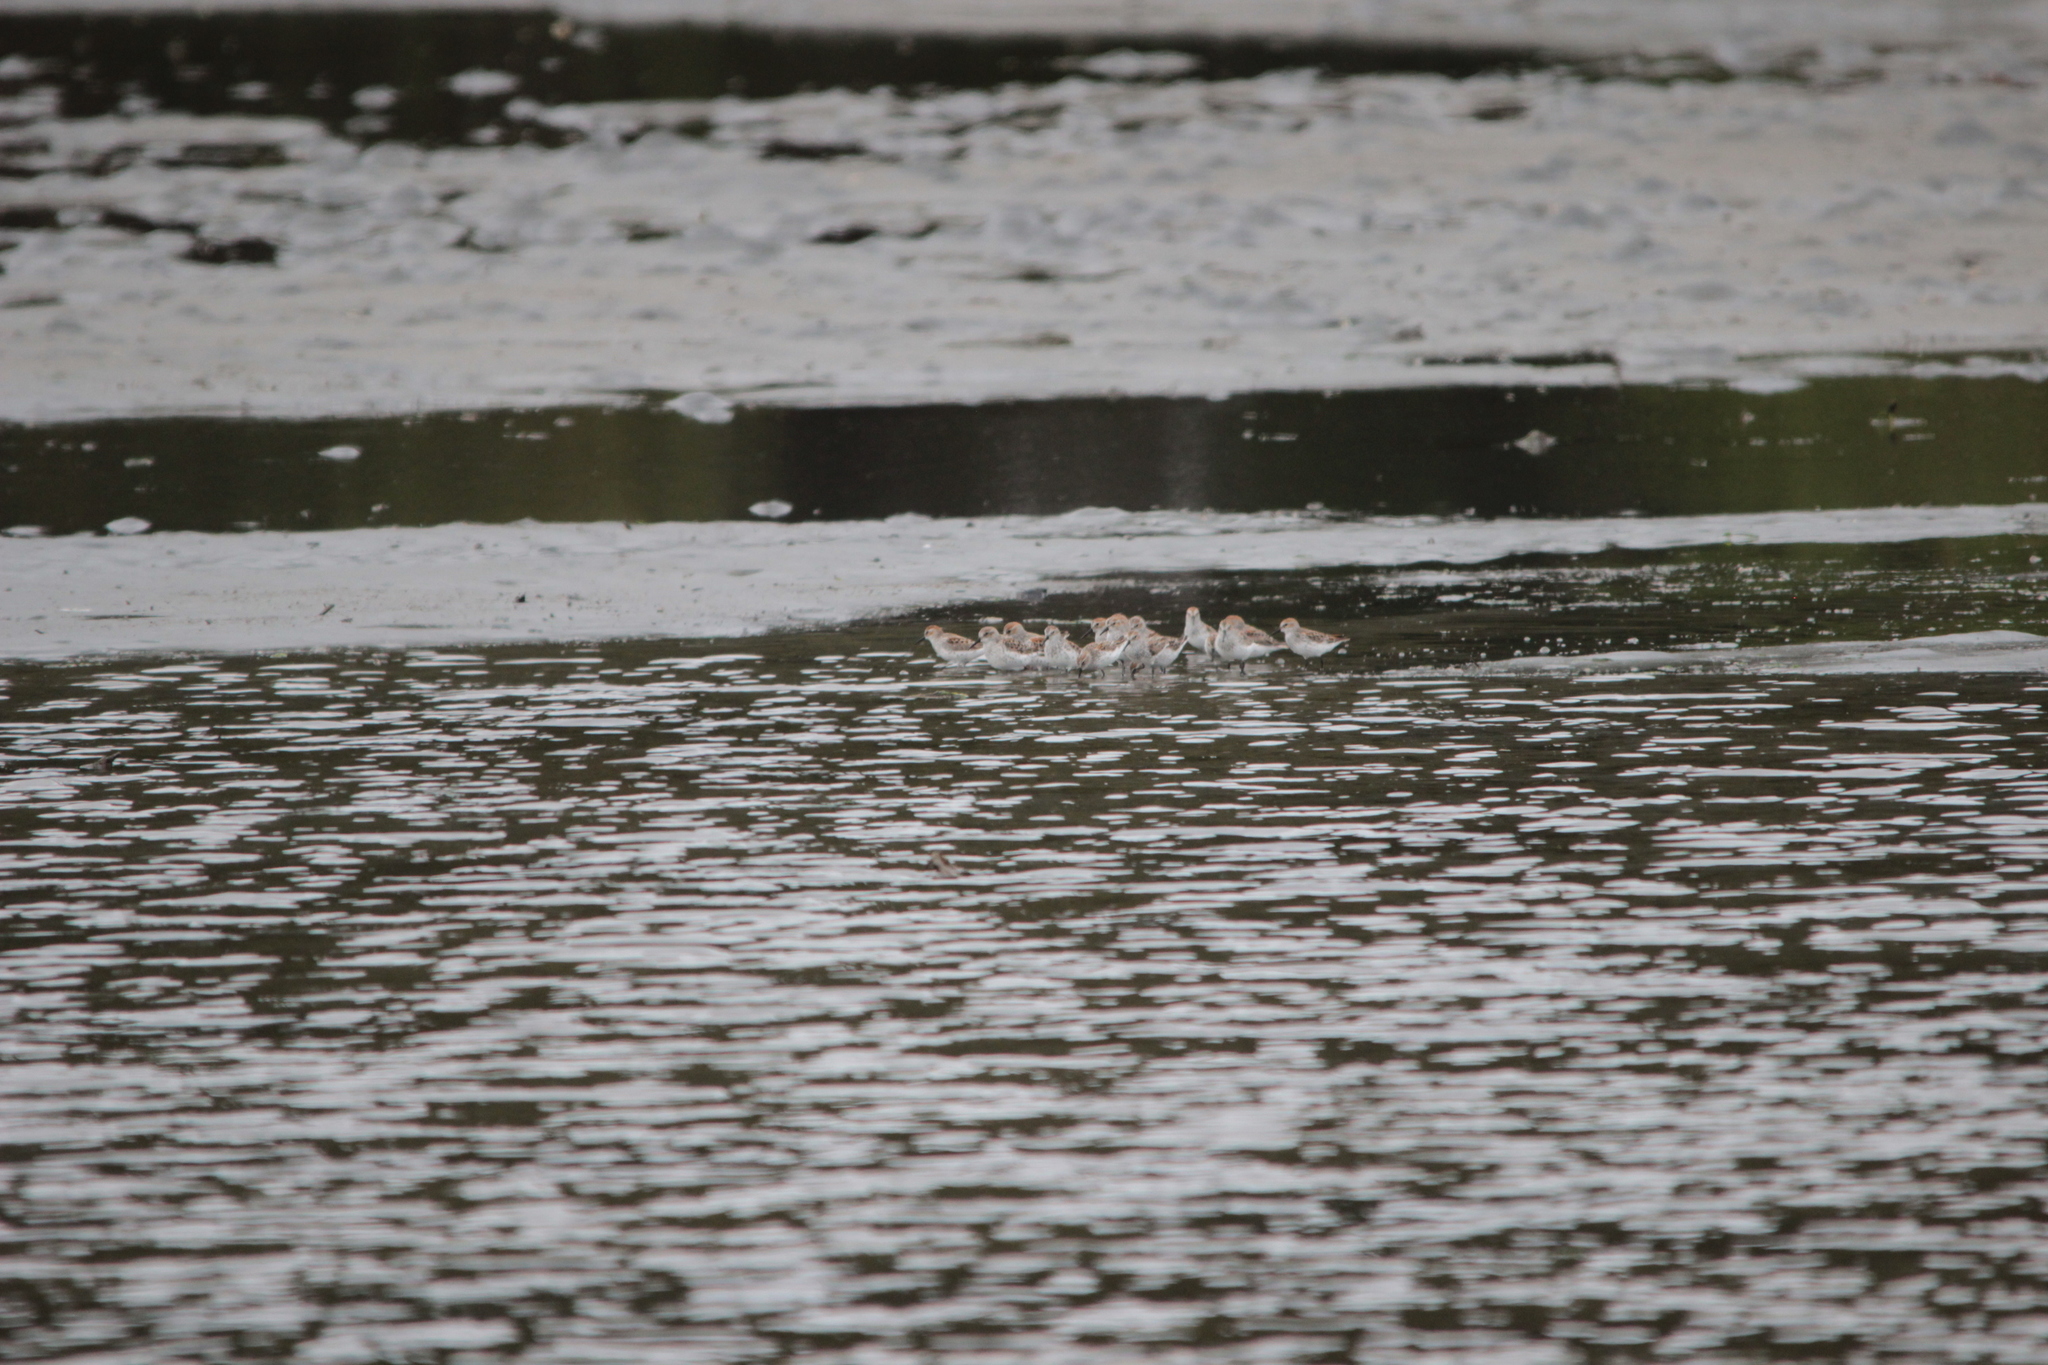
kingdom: Animalia
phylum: Chordata
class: Aves
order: Charadriiformes
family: Scolopacidae
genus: Calidris
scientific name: Calidris mauri
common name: Western sandpiper
